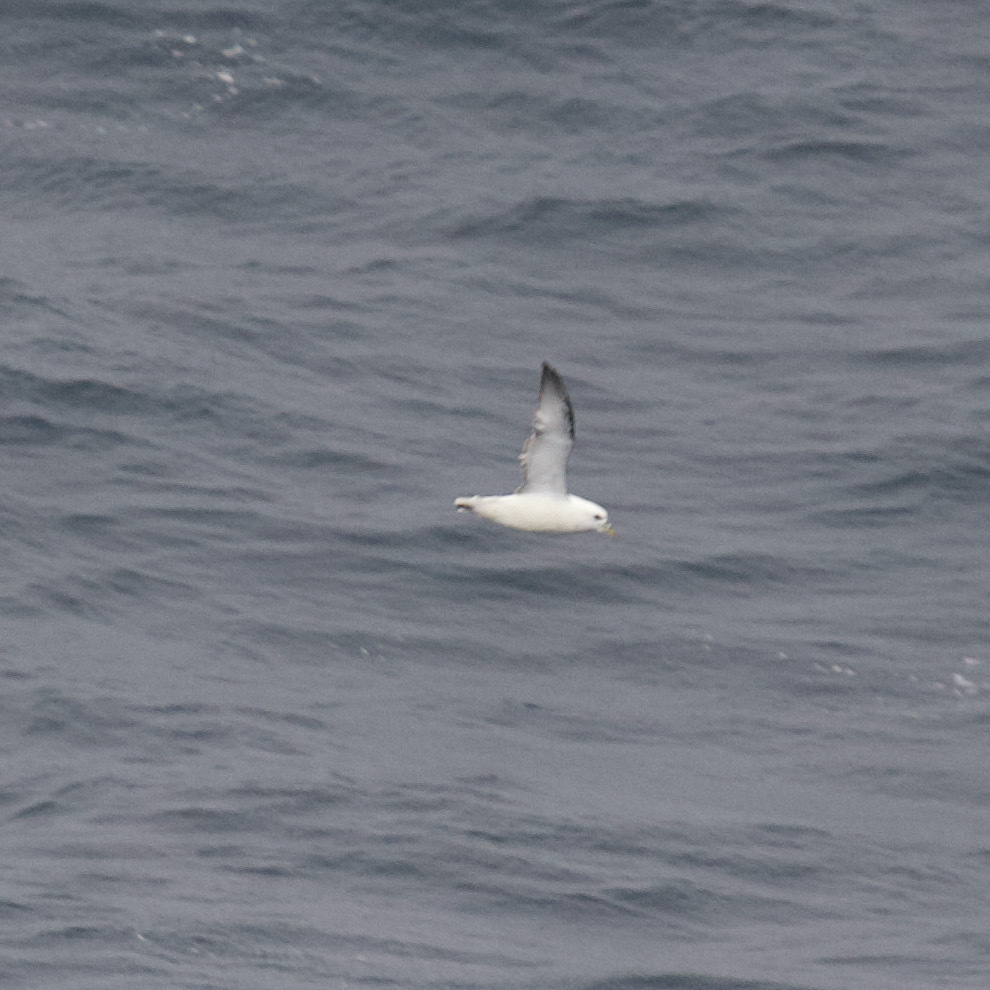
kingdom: Animalia
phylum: Chordata
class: Aves
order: Procellariiformes
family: Procellariidae
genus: Fulmarus
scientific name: Fulmarus glacialis
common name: Northern fulmar
